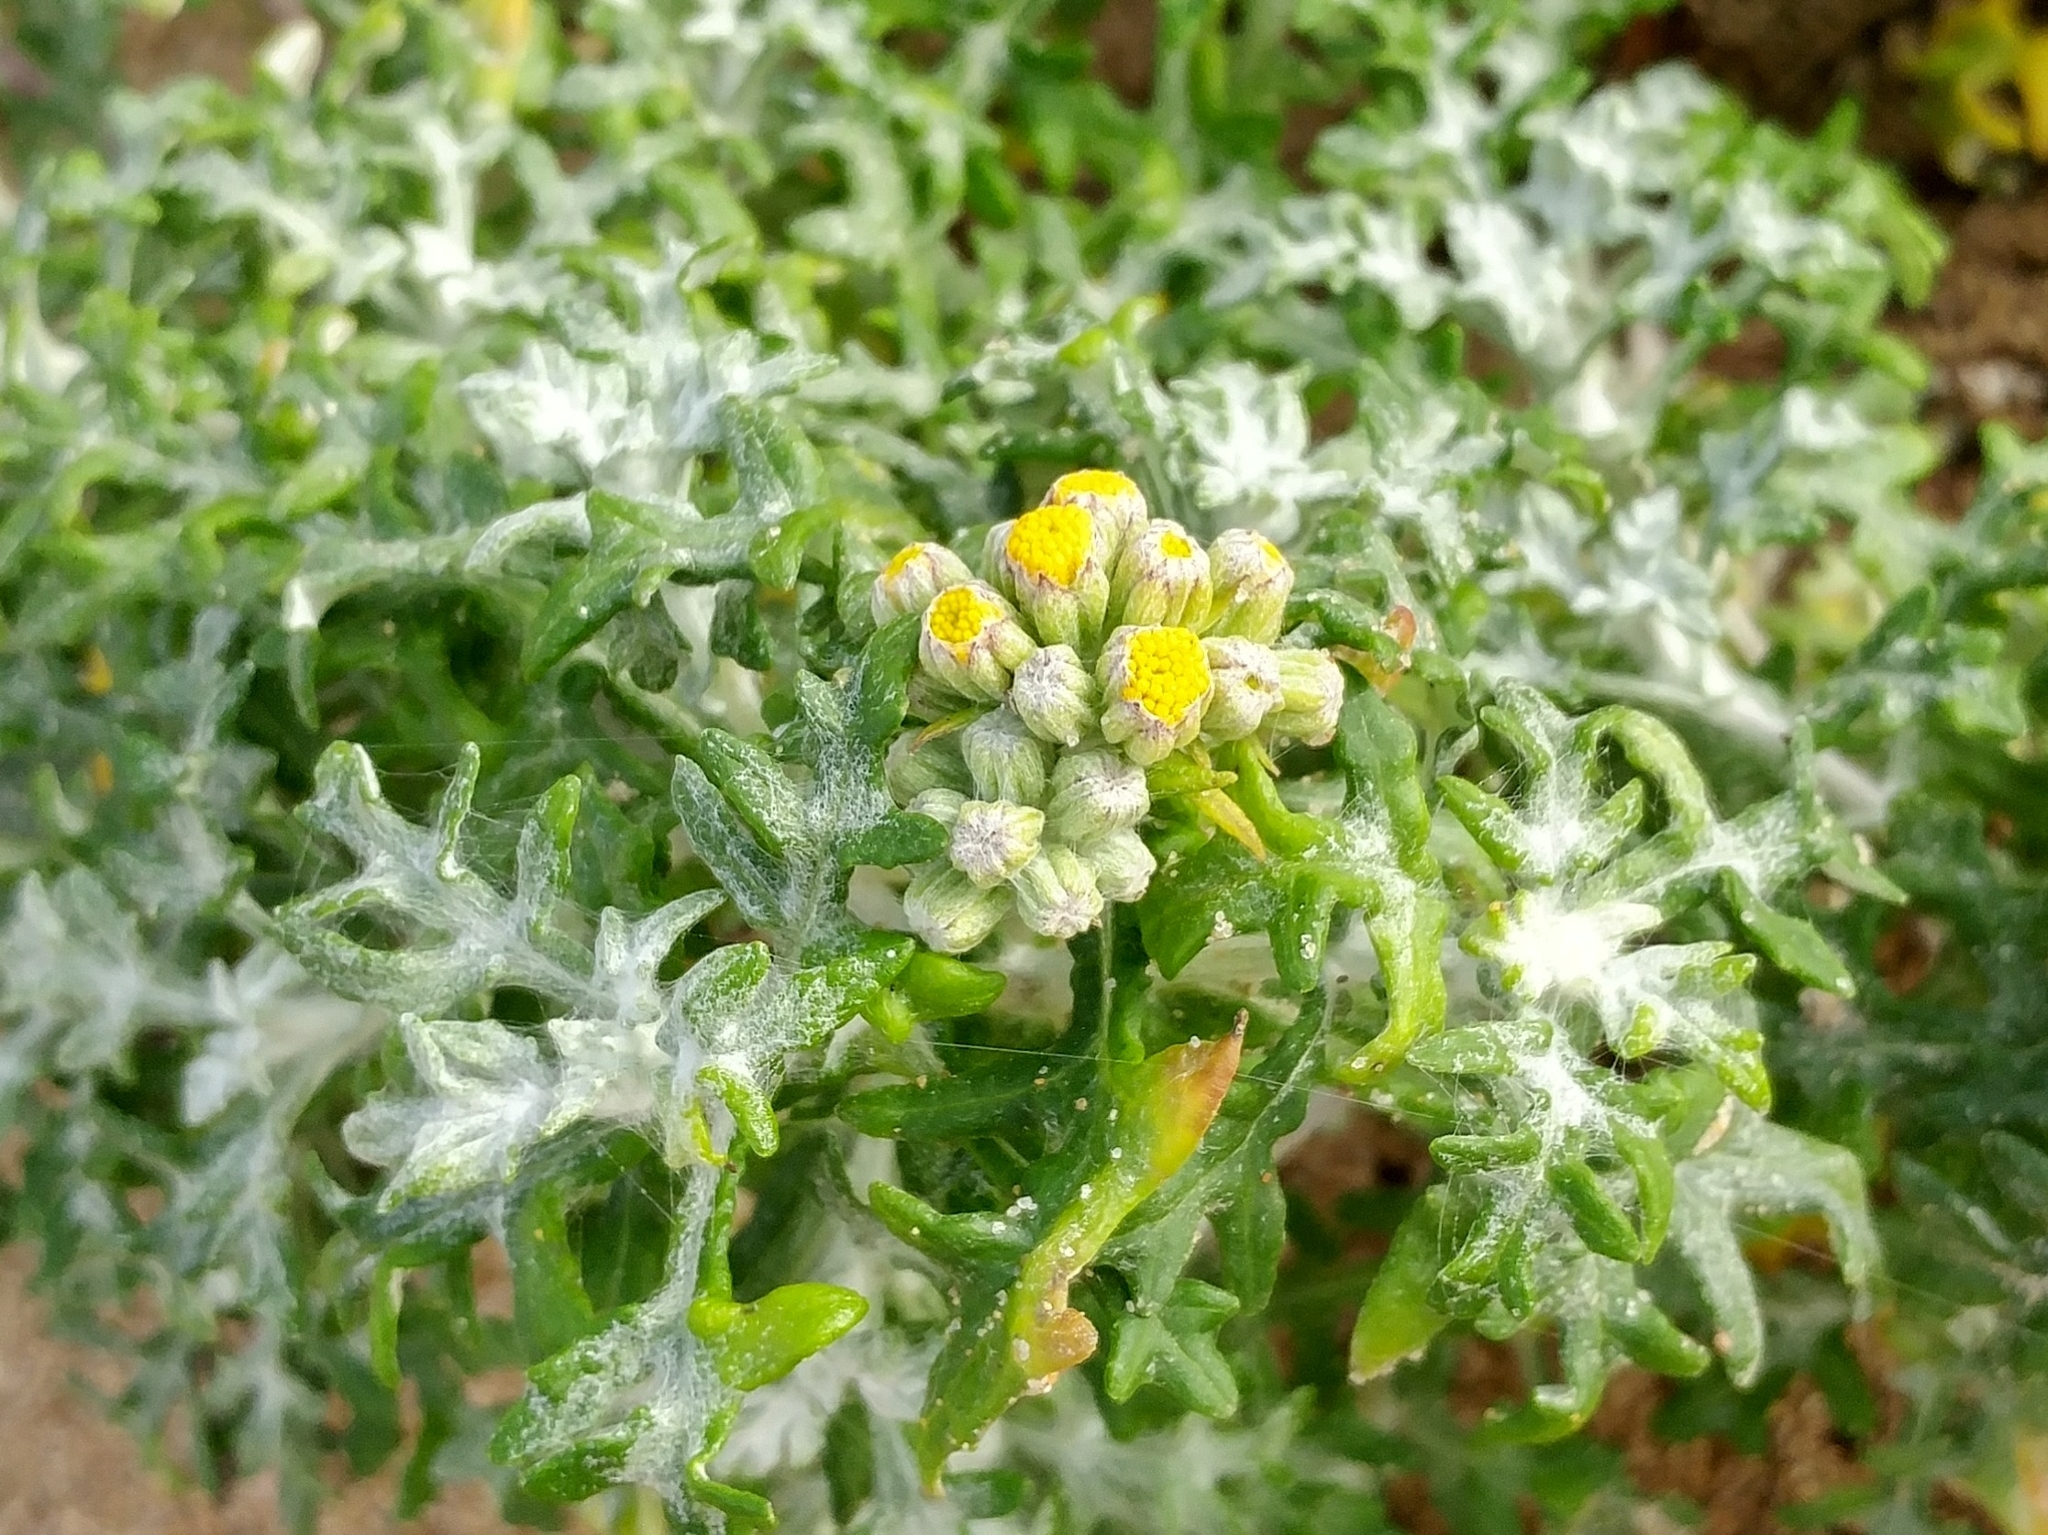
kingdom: Plantae
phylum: Tracheophyta
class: Magnoliopsida
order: Asterales
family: Asteraceae
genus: Eriophyllum
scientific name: Eriophyllum staechadifolium
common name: Lizardtail
